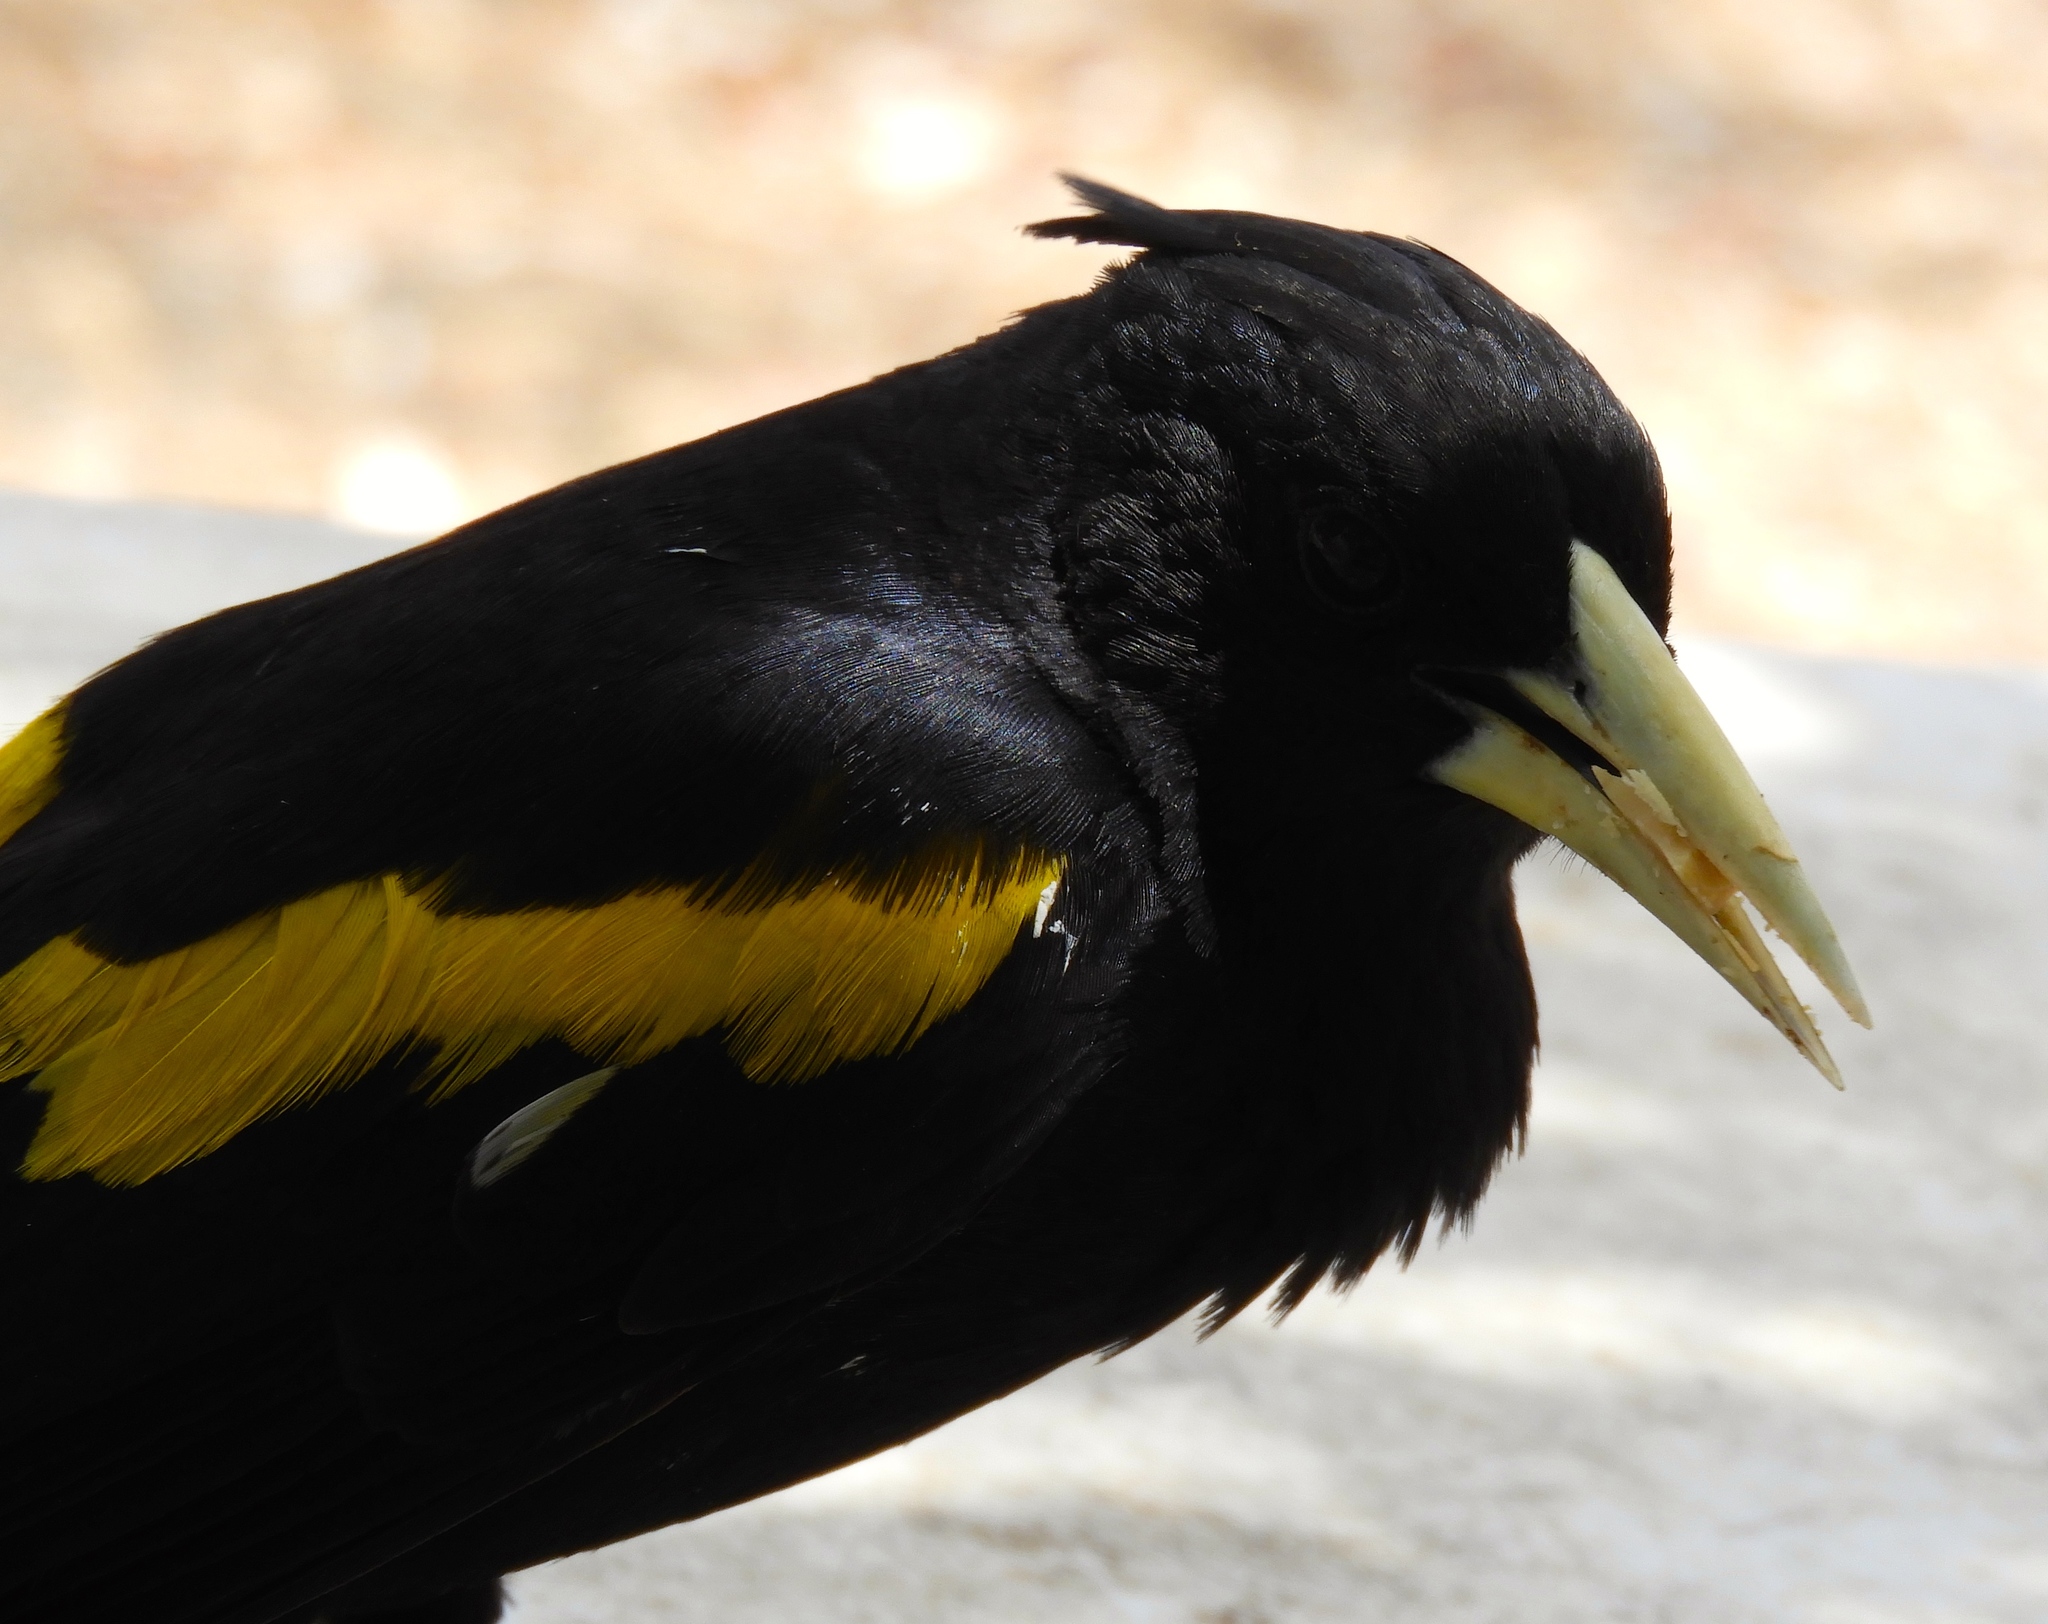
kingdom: Animalia
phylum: Chordata
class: Aves
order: Passeriformes
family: Icteridae
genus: Cacicus
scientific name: Cacicus melanicterus
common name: Yellow-winged cacique
